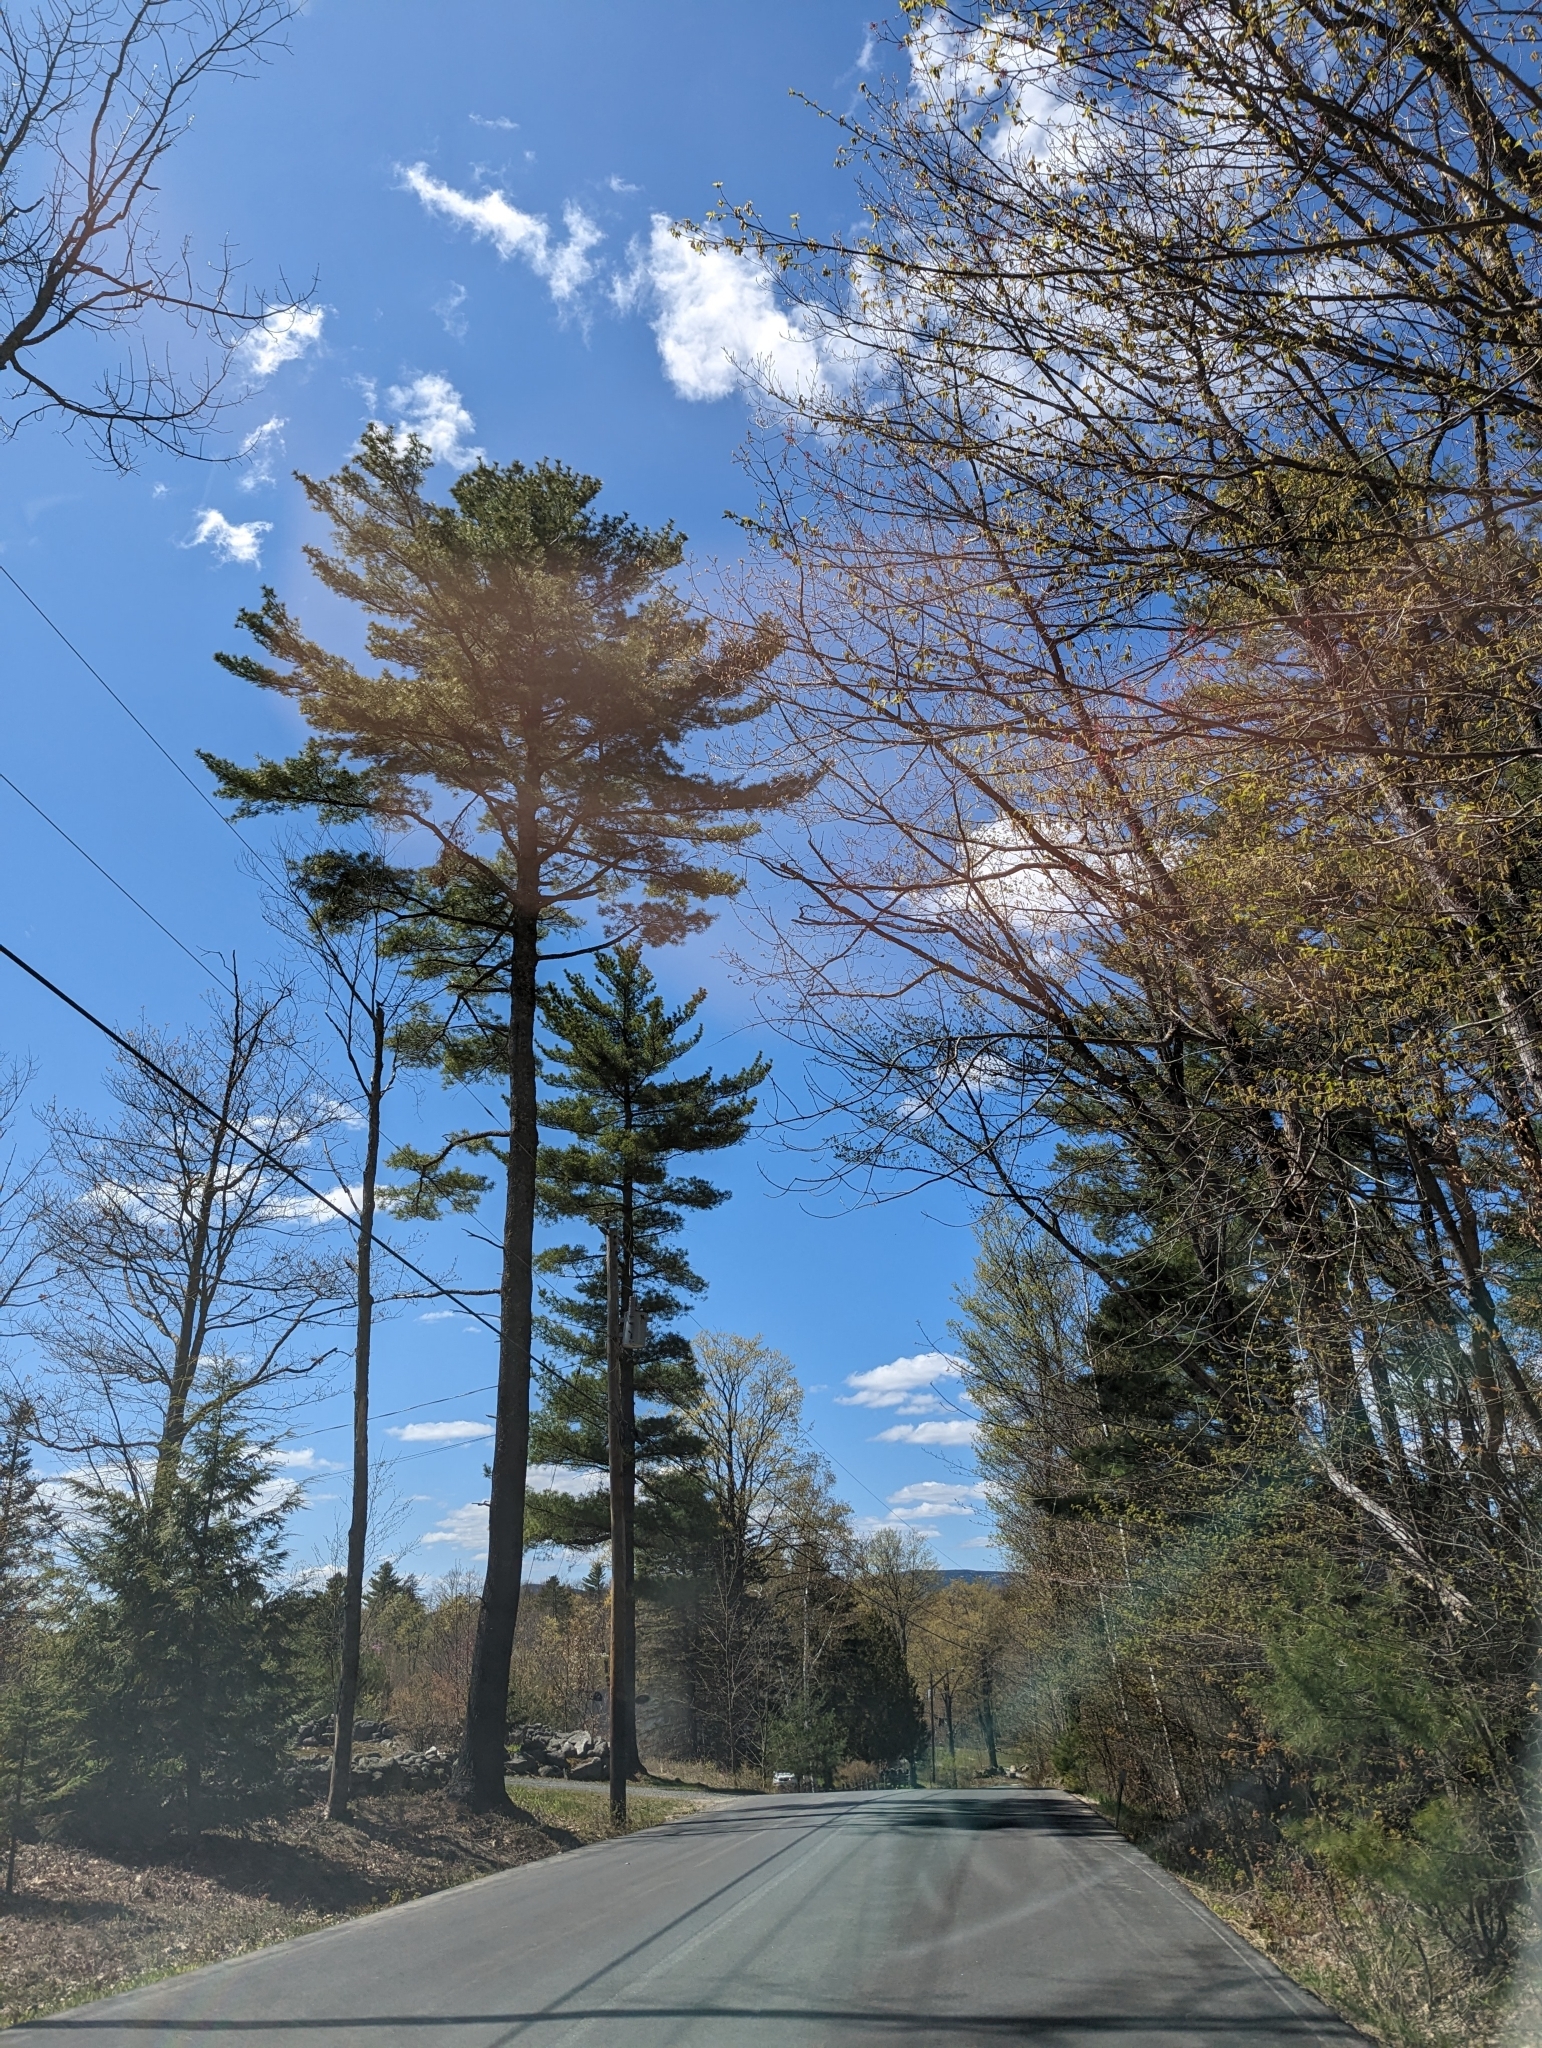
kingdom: Plantae
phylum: Tracheophyta
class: Pinopsida
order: Pinales
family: Pinaceae
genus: Pinus
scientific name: Pinus strobus
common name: Weymouth pine
